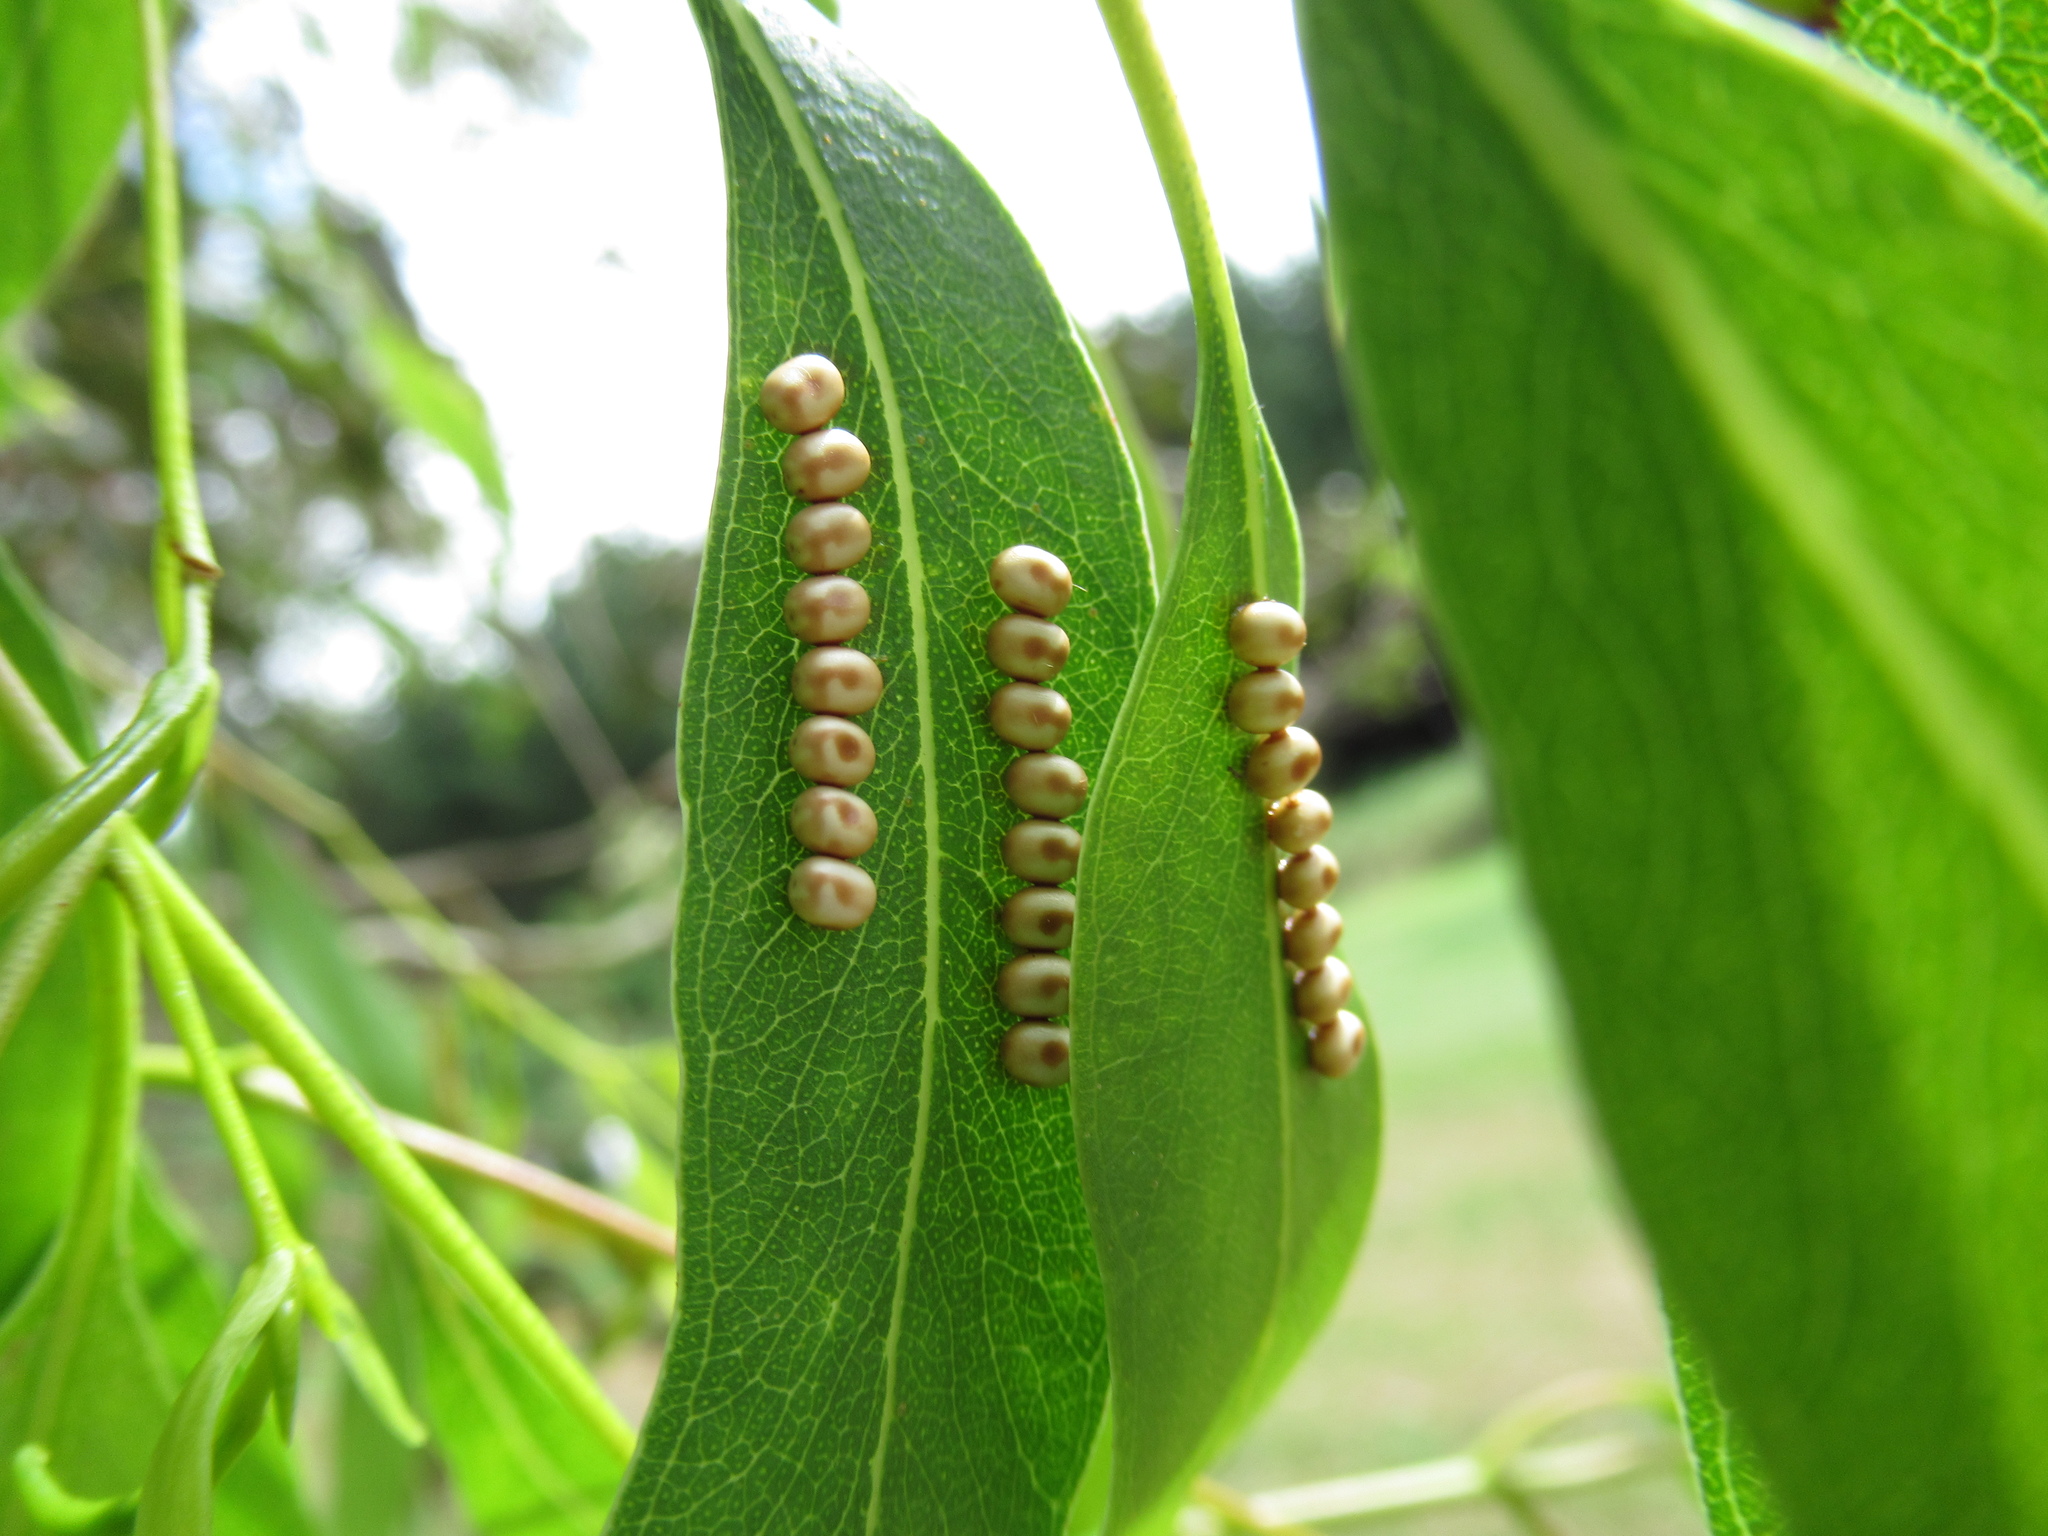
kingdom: Animalia
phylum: Arthropoda
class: Insecta
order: Lepidoptera
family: Saturniidae
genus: Opodiphthera
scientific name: Opodiphthera
